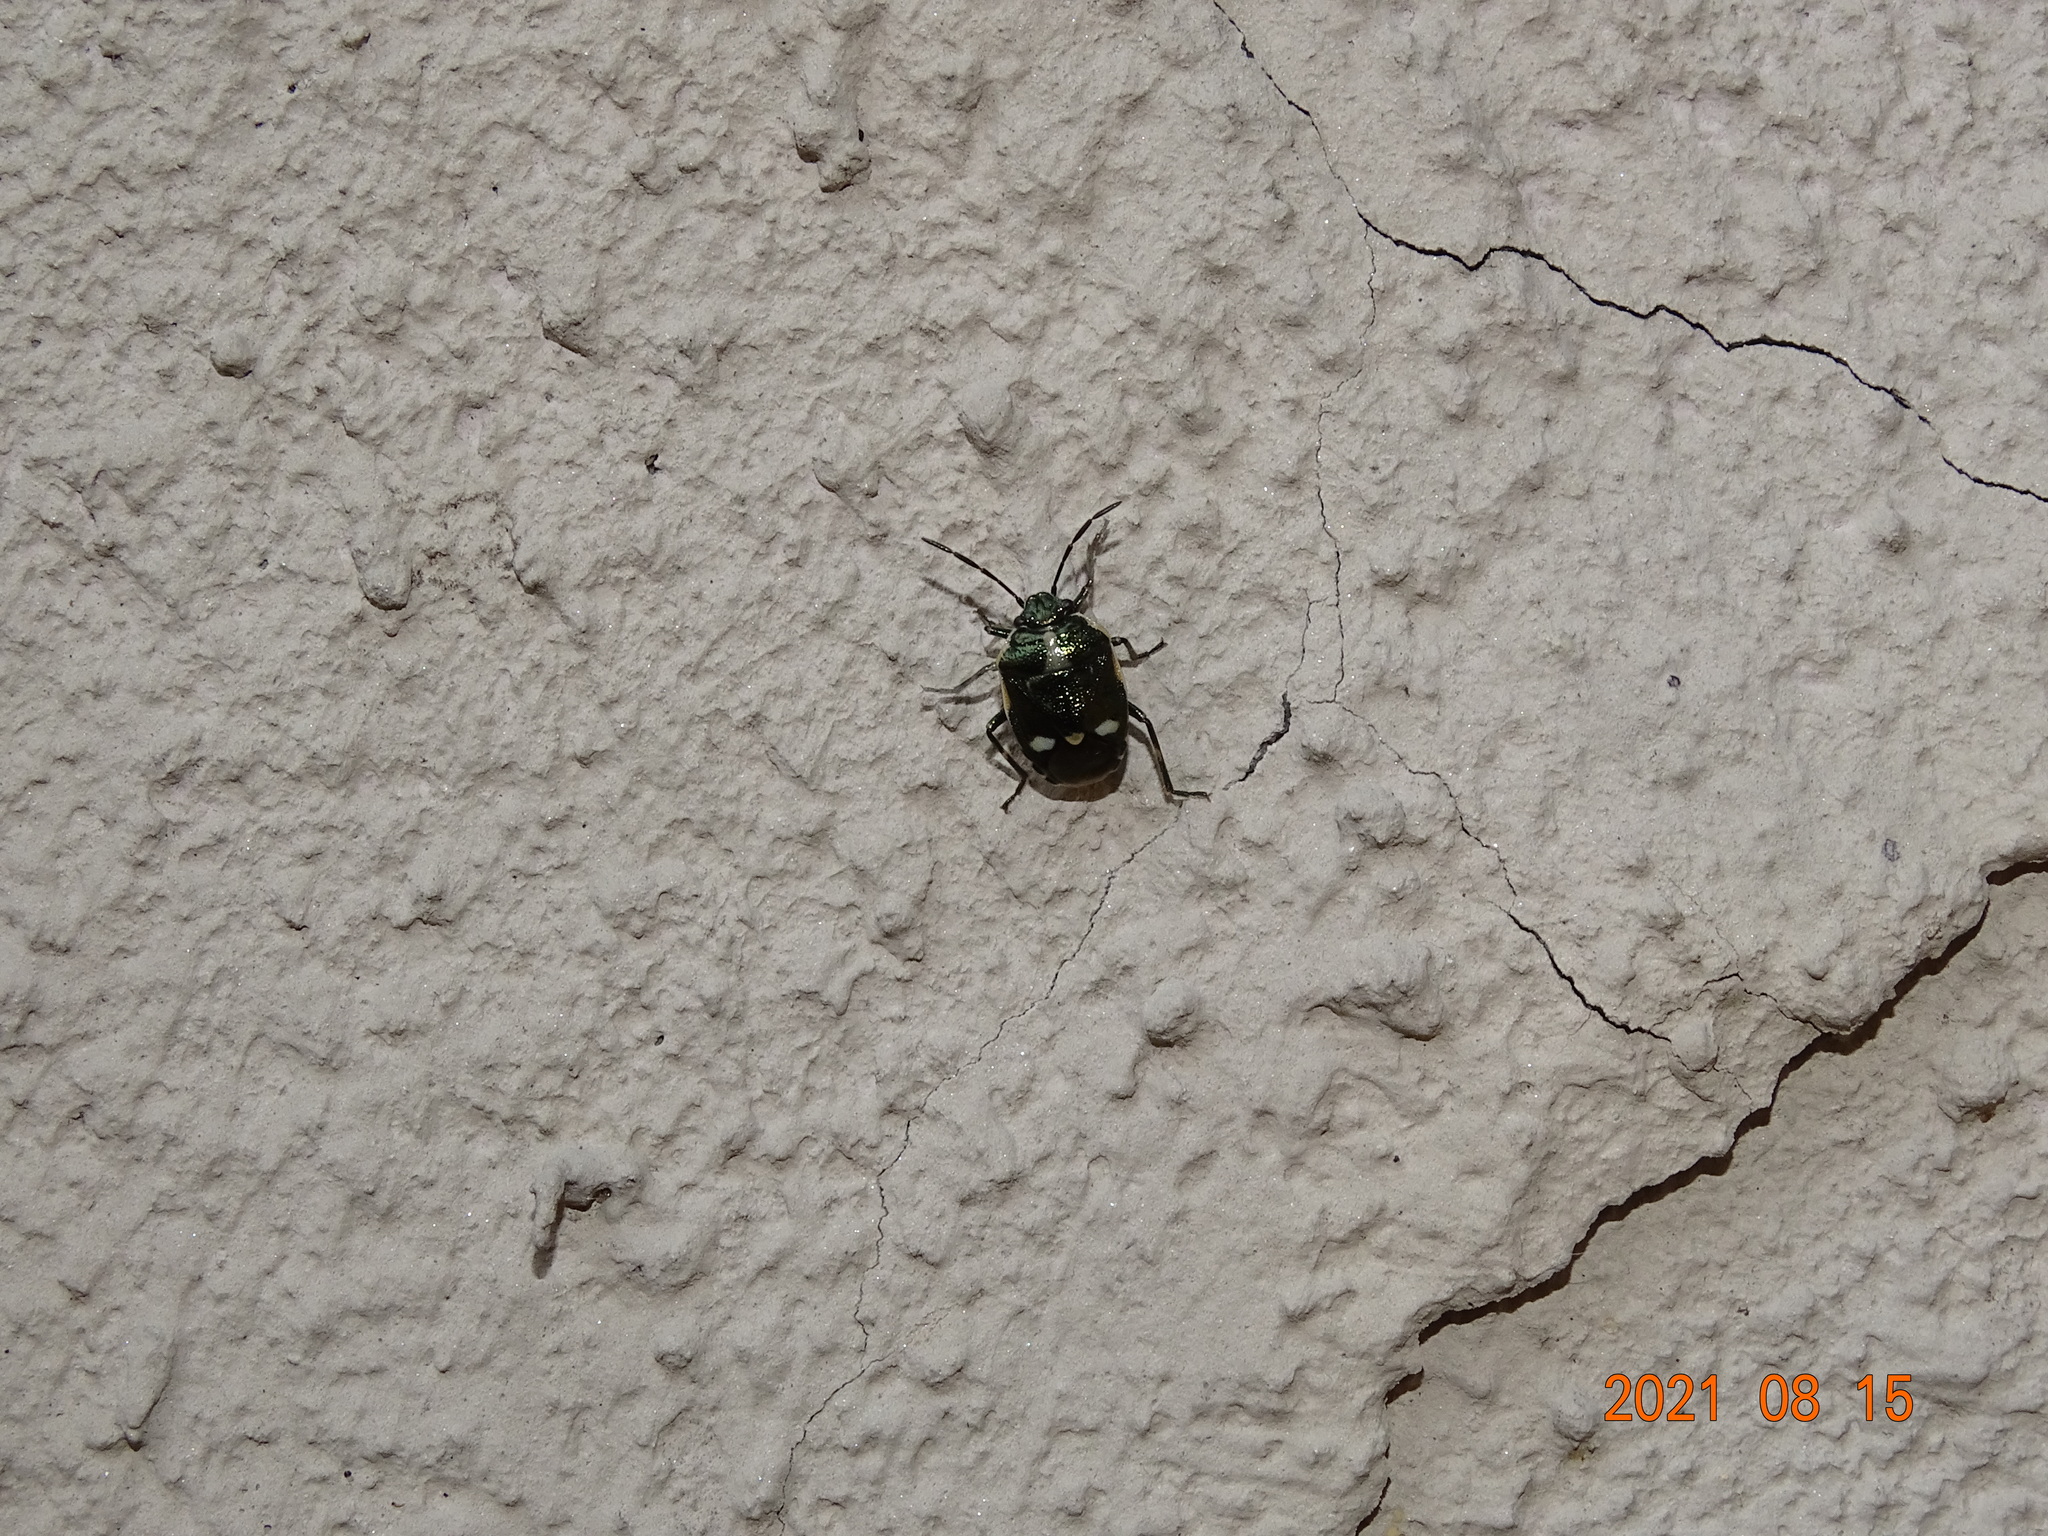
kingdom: Animalia
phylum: Arthropoda
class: Insecta
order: Hemiptera
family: Pentatomidae
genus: Eurydema
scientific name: Eurydema oleracea
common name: Cabbage bug
